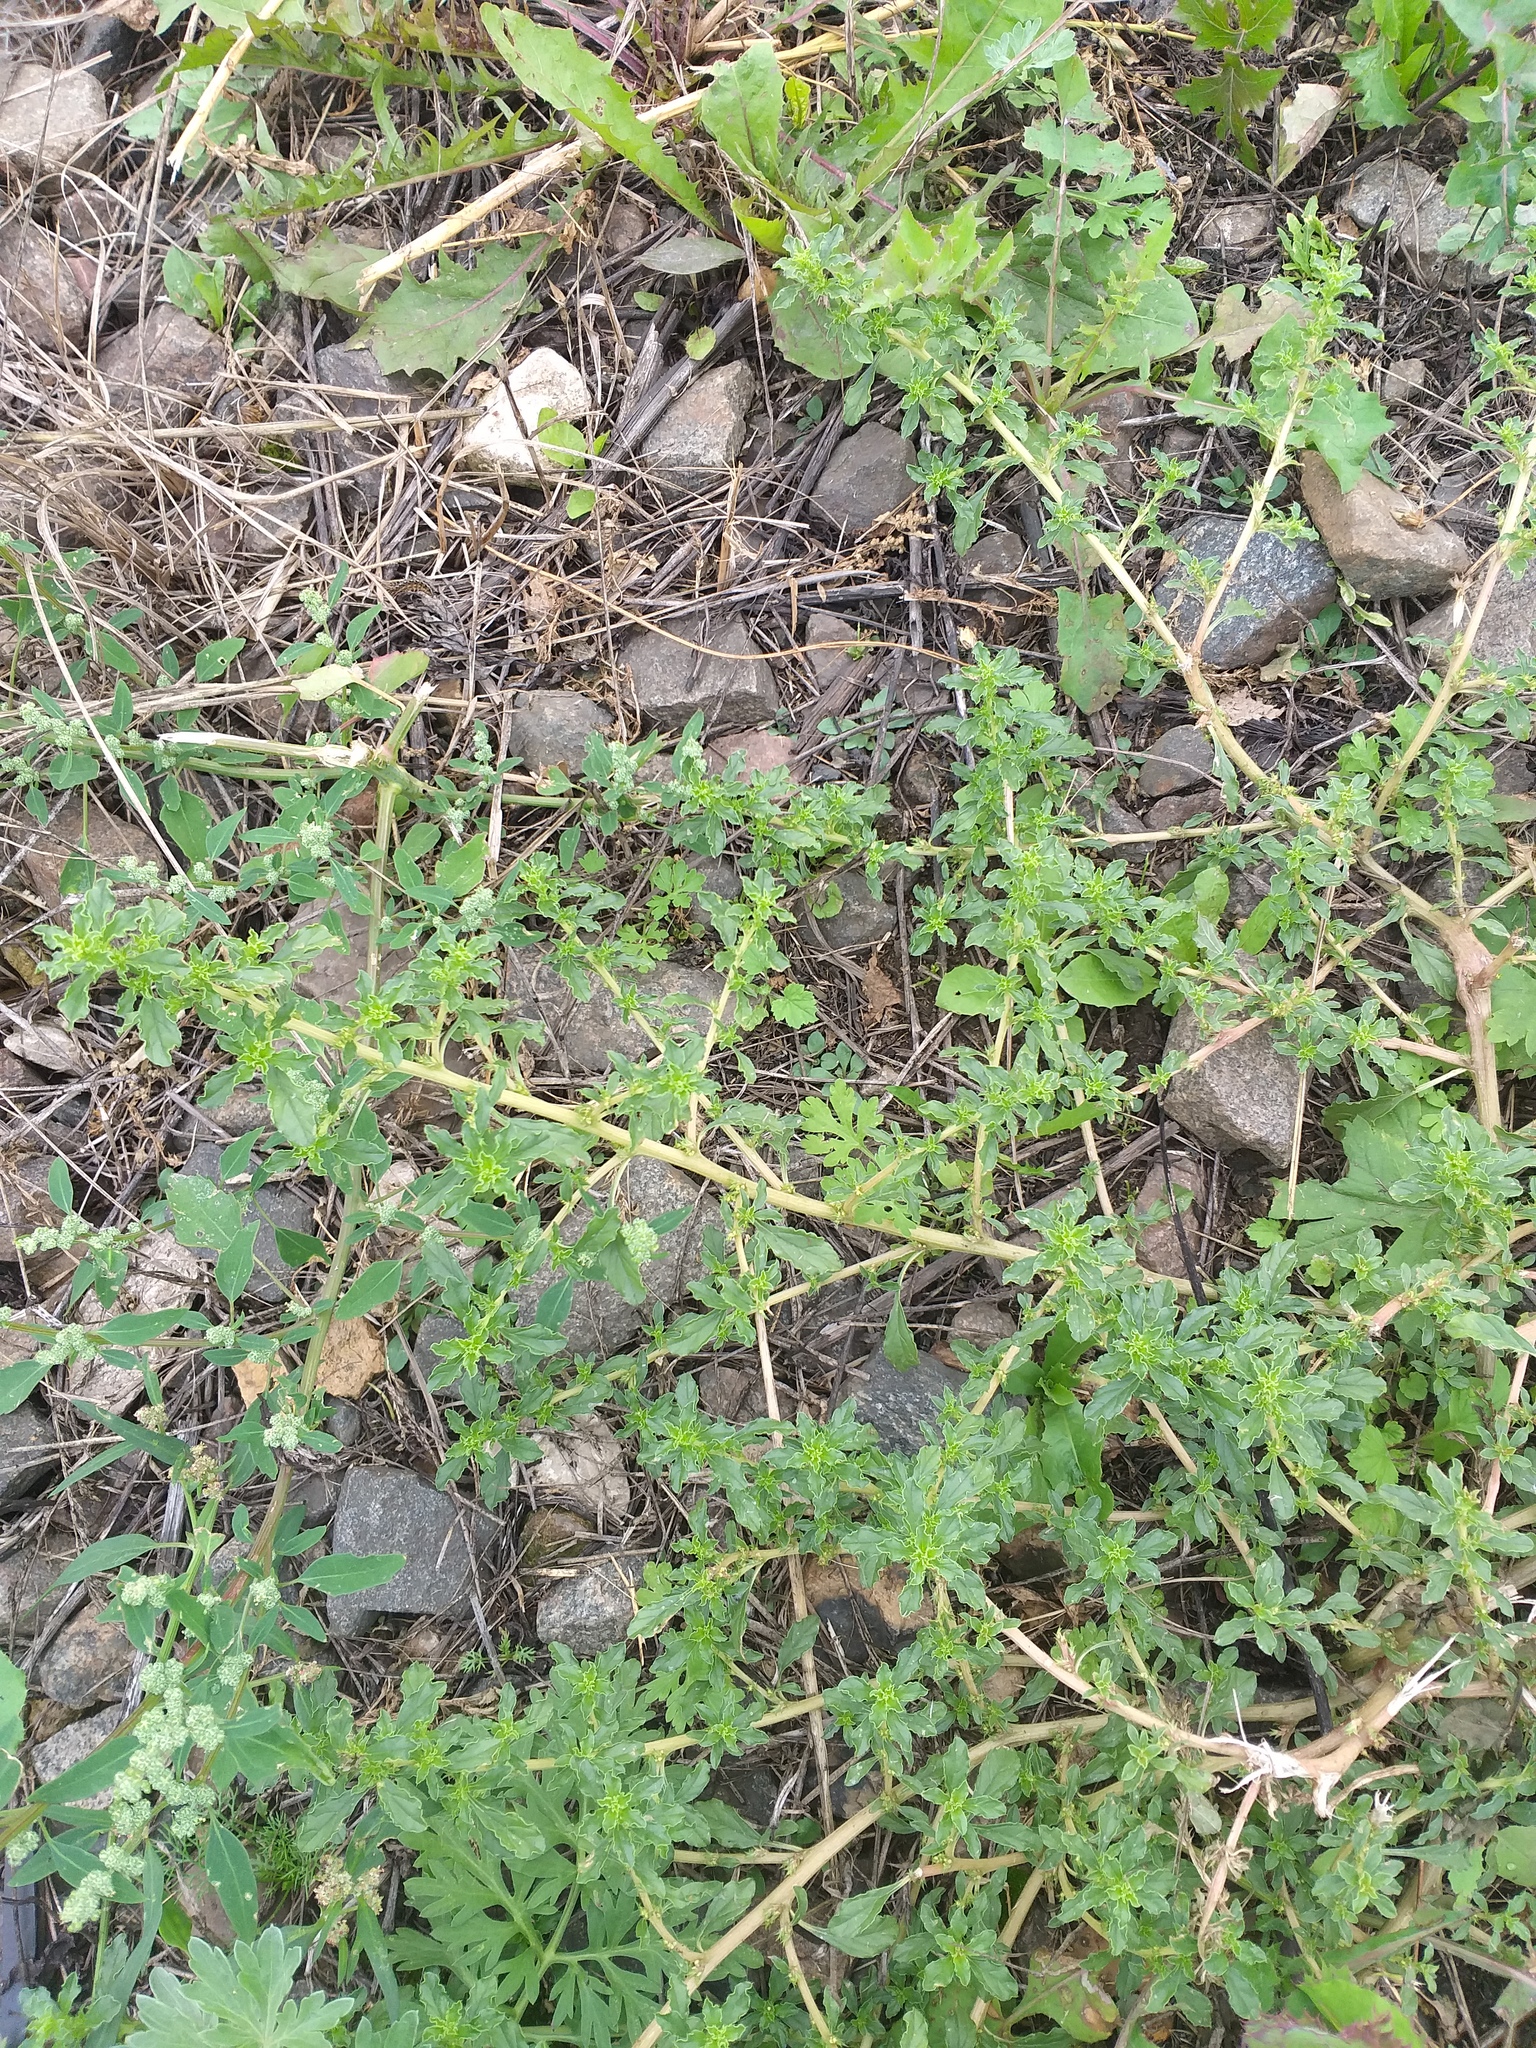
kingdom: Plantae
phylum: Tracheophyta
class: Magnoliopsida
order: Caryophyllales
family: Amaranthaceae
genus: Amaranthus
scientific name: Amaranthus albus
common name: White pigweed
